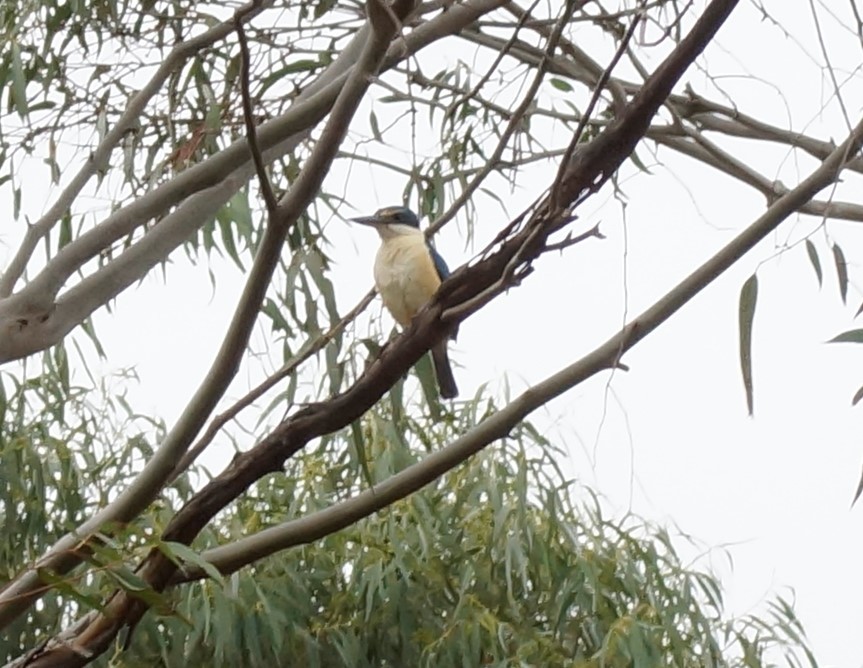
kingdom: Animalia
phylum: Chordata
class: Aves
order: Coraciiformes
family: Alcedinidae
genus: Todiramphus
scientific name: Todiramphus sanctus
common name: Sacred kingfisher
